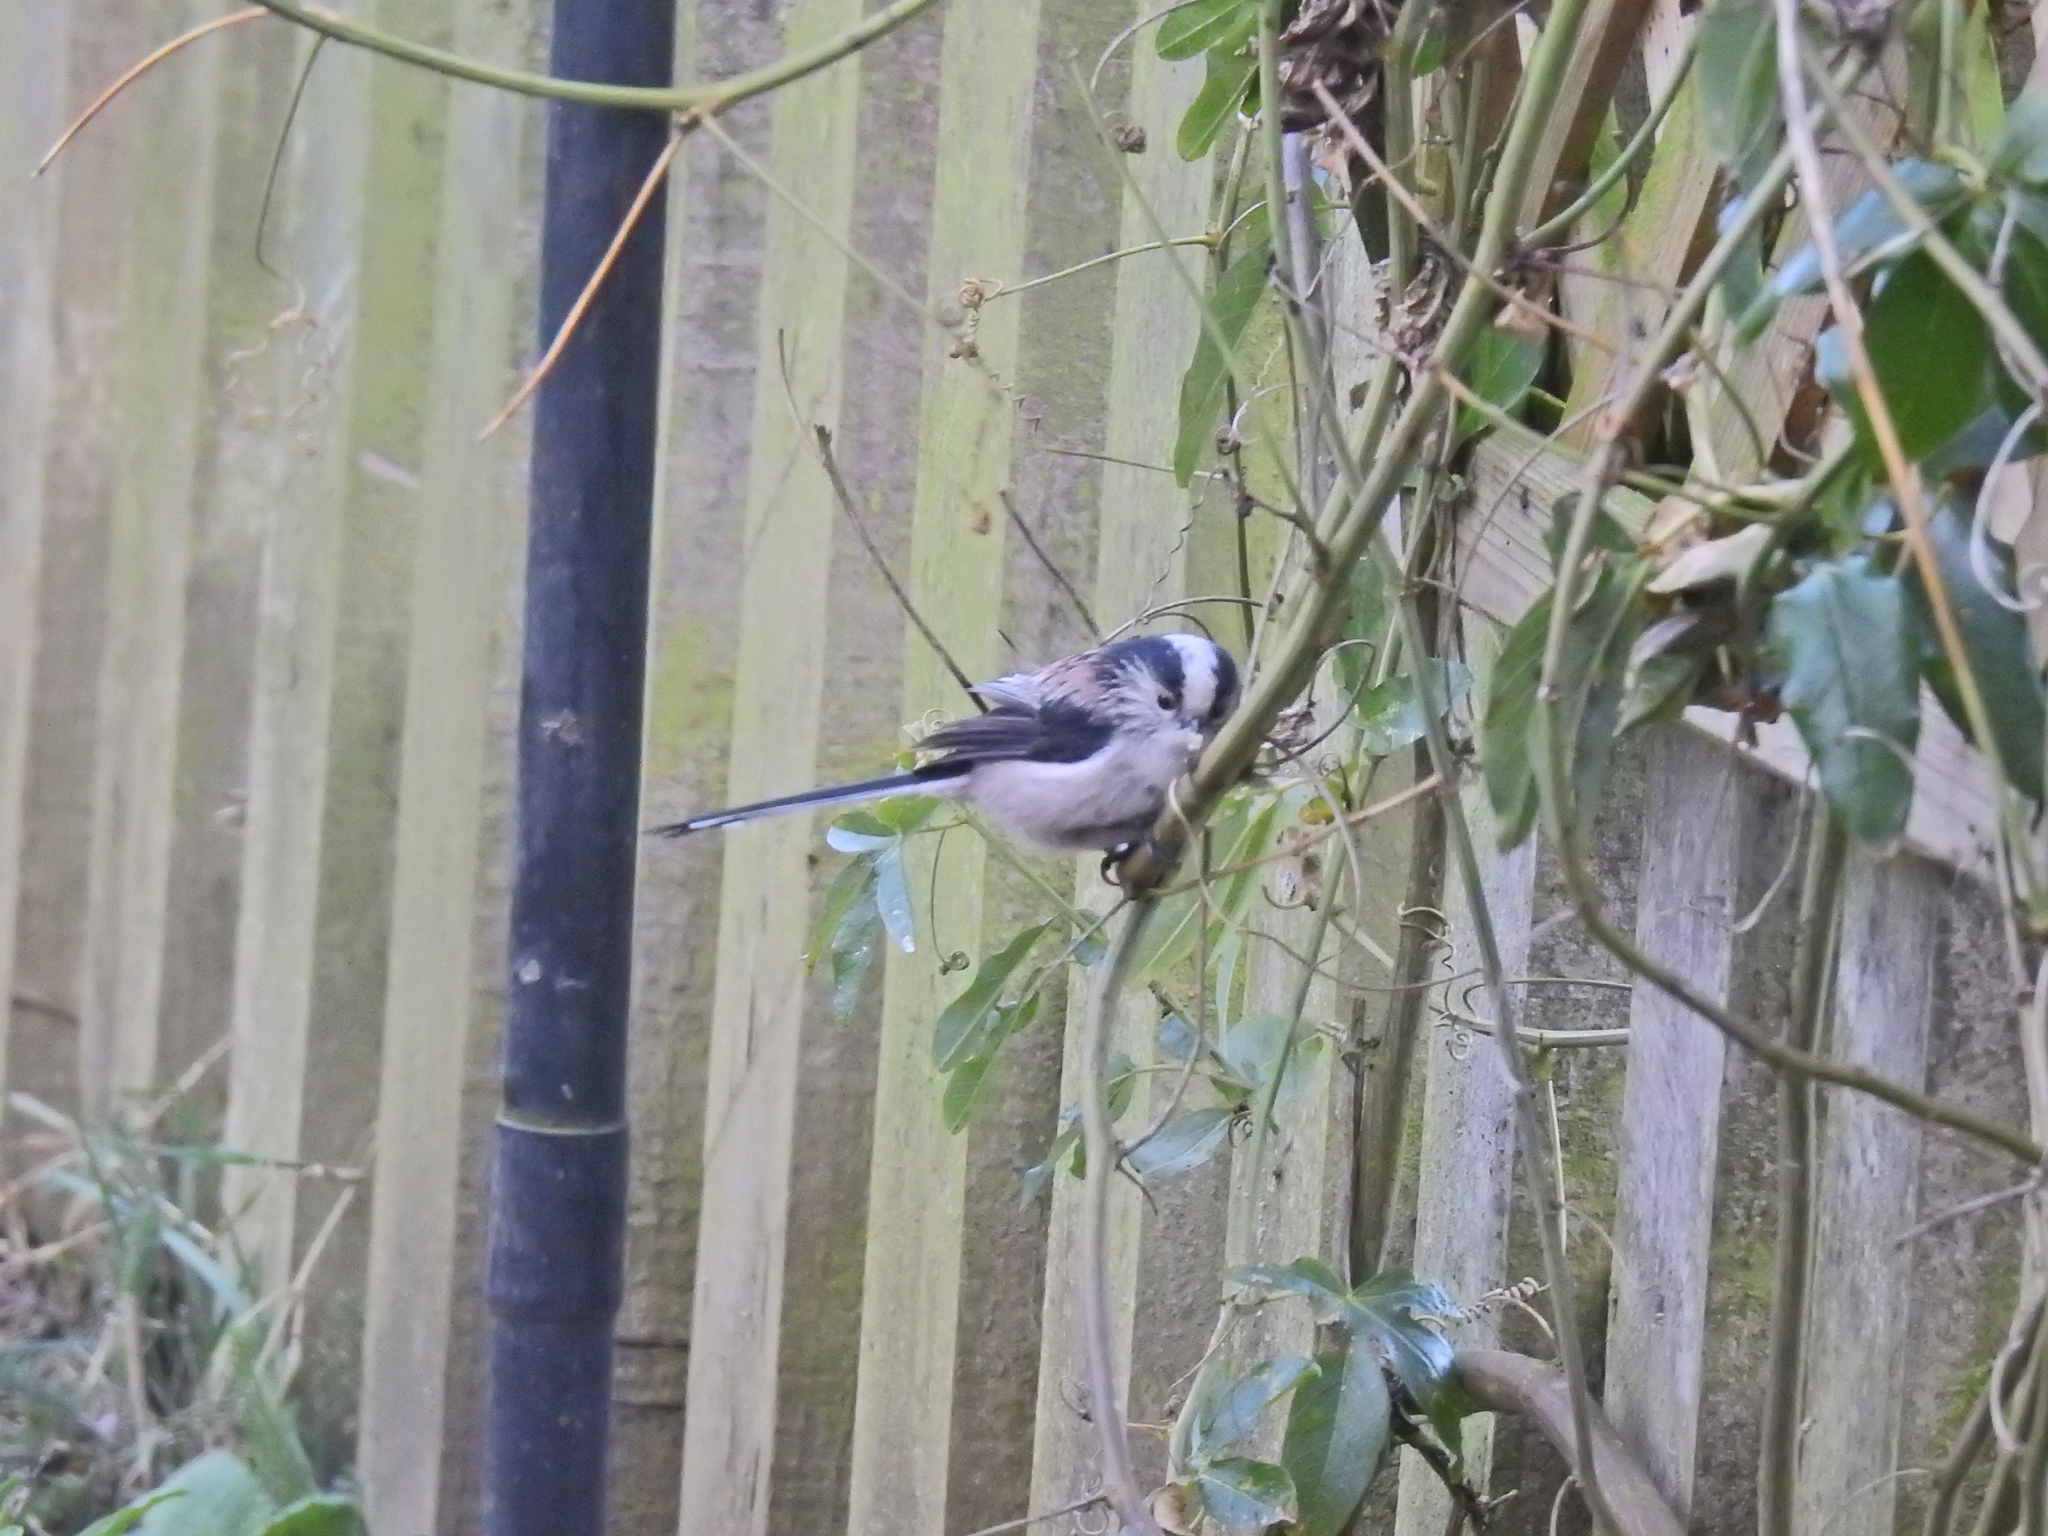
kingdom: Animalia
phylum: Chordata
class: Aves
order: Passeriformes
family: Aegithalidae
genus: Aegithalos
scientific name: Aegithalos caudatus
